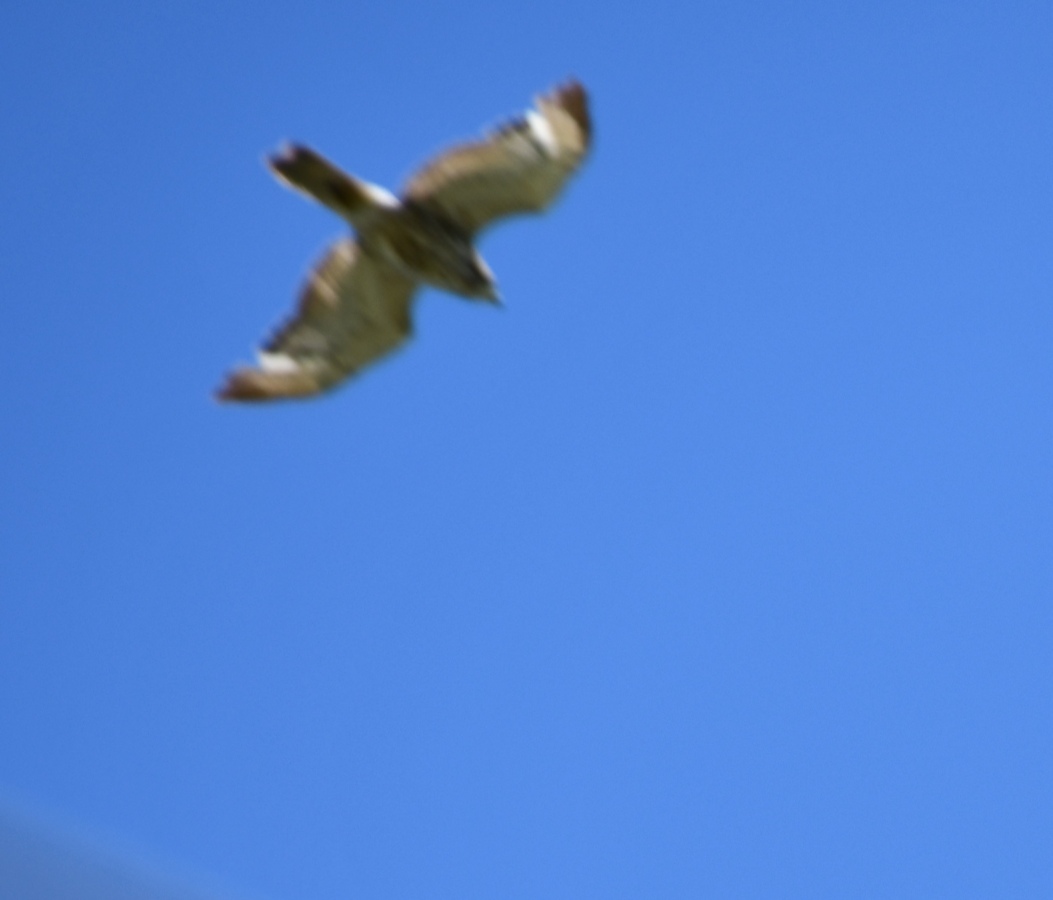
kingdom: Animalia
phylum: Chordata
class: Aves
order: Accipitriformes
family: Accipitridae
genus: Buteo
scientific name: Buteo platypterus
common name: Broad-winged hawk
